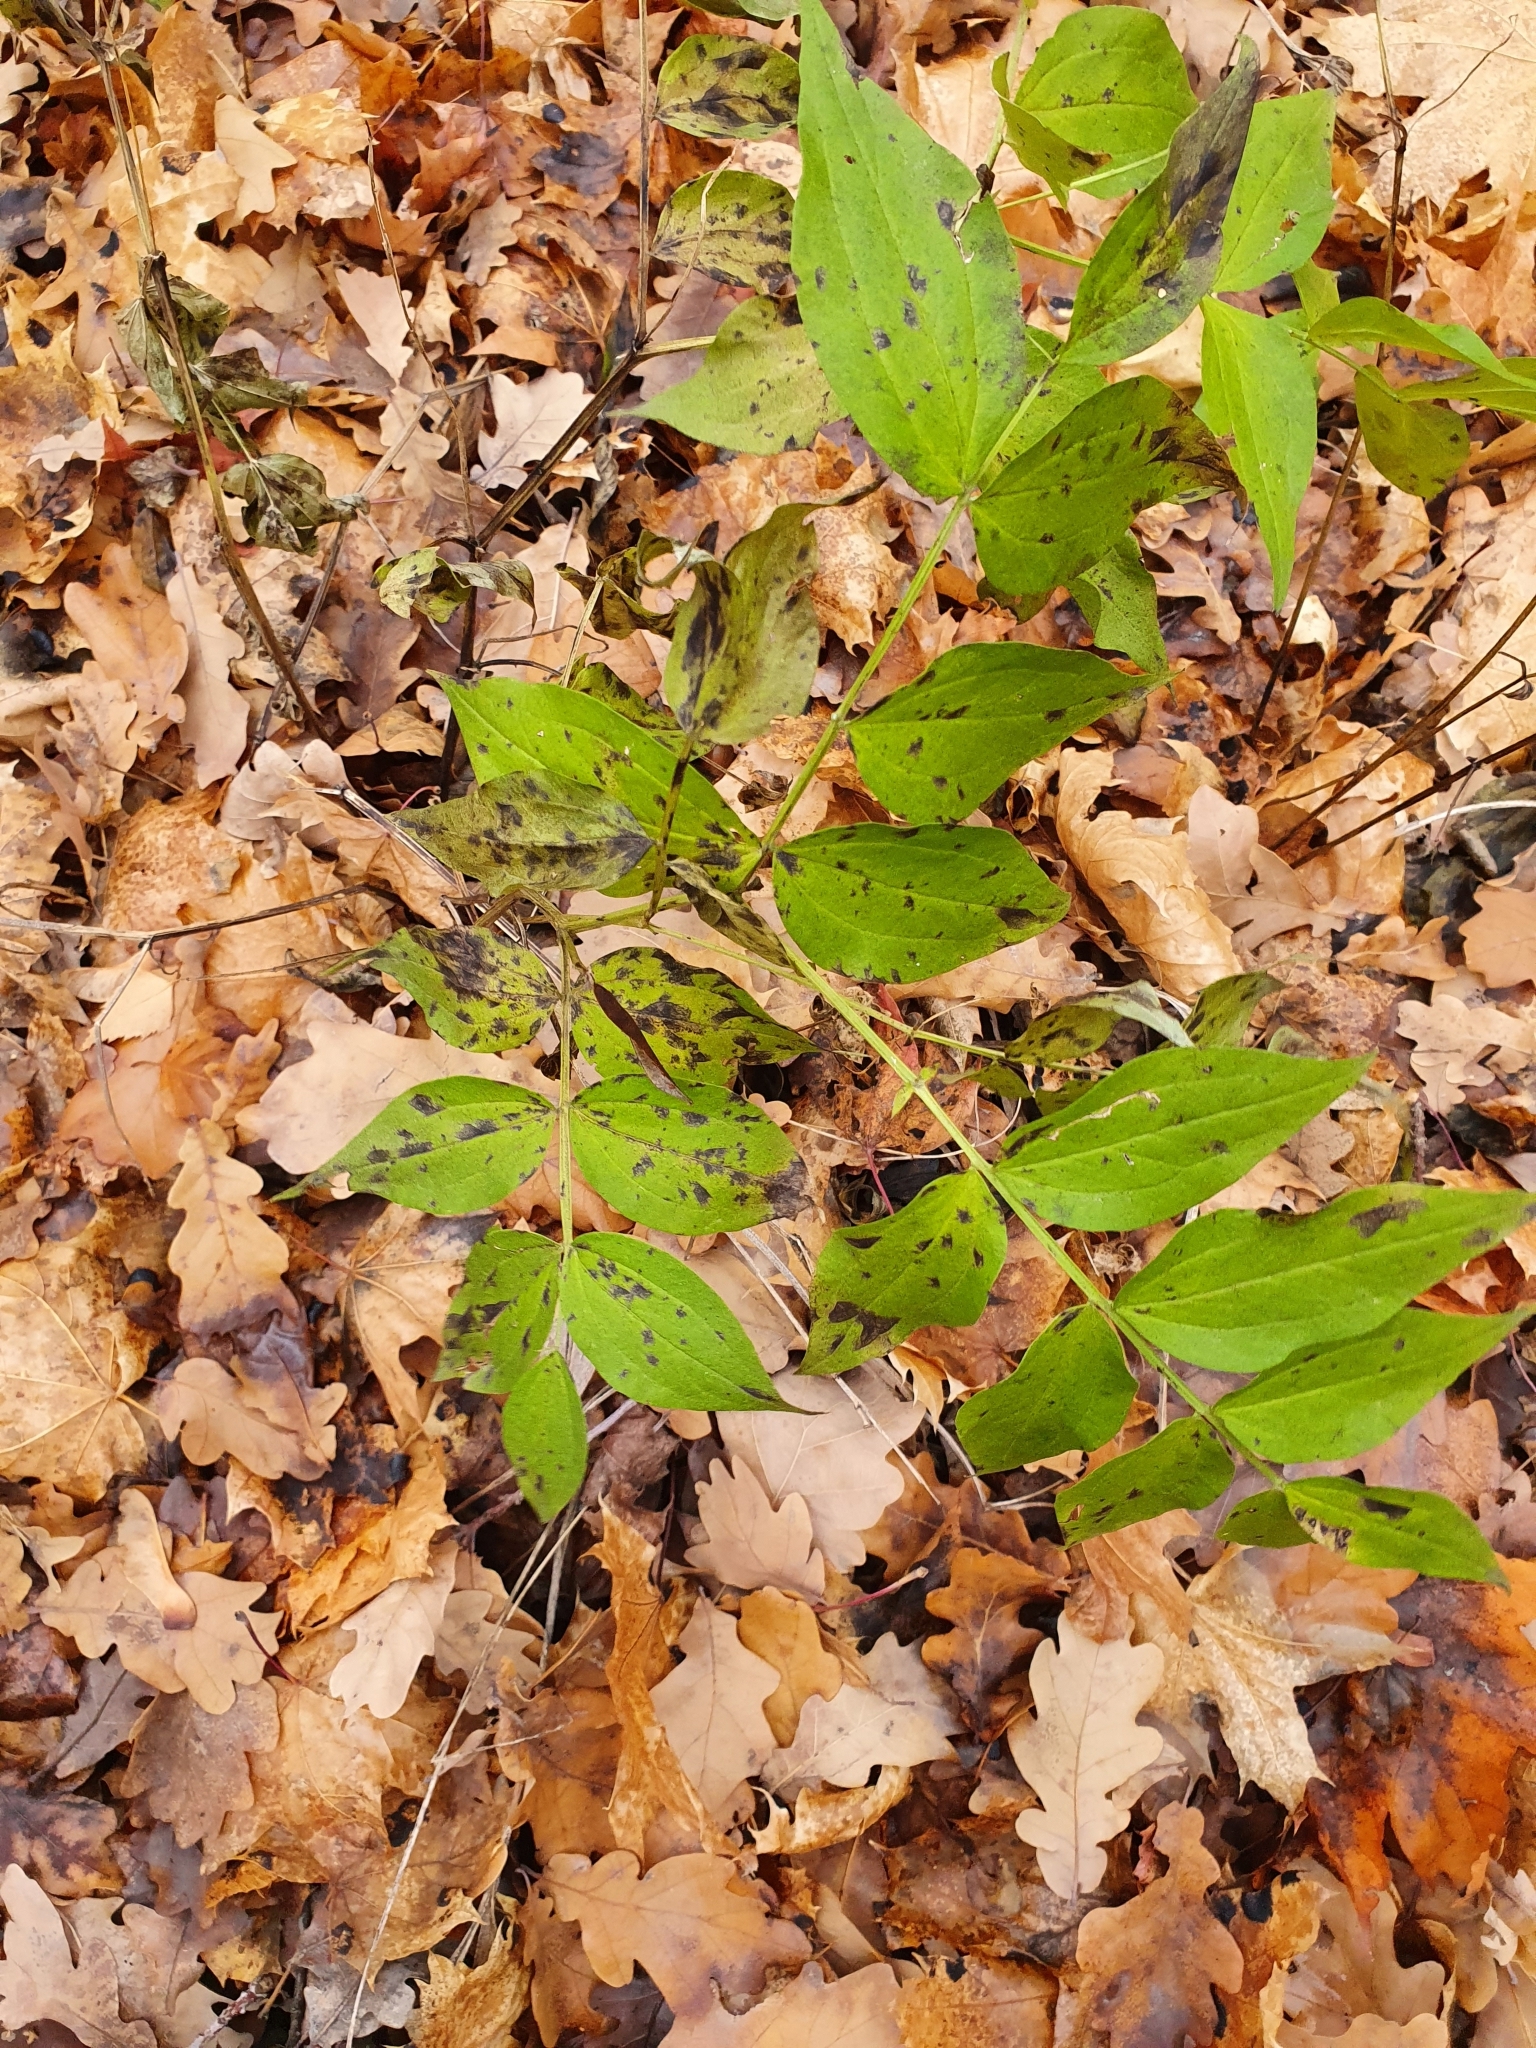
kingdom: Plantae
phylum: Tracheophyta
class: Magnoliopsida
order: Fabales
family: Fabaceae
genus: Lathyrus
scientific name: Lathyrus vernus
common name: Spring pea
